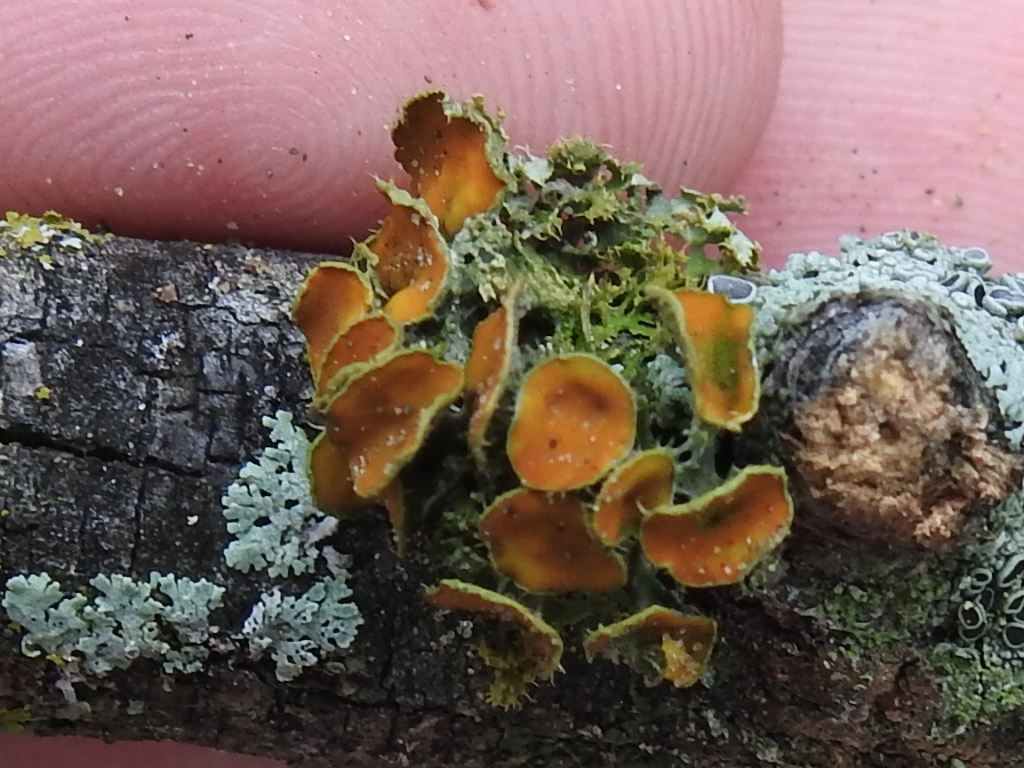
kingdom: Fungi
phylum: Ascomycota
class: Lecanoromycetes
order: Teloschistales
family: Teloschistaceae
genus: Niorma
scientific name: Niorma chrysophthalma
